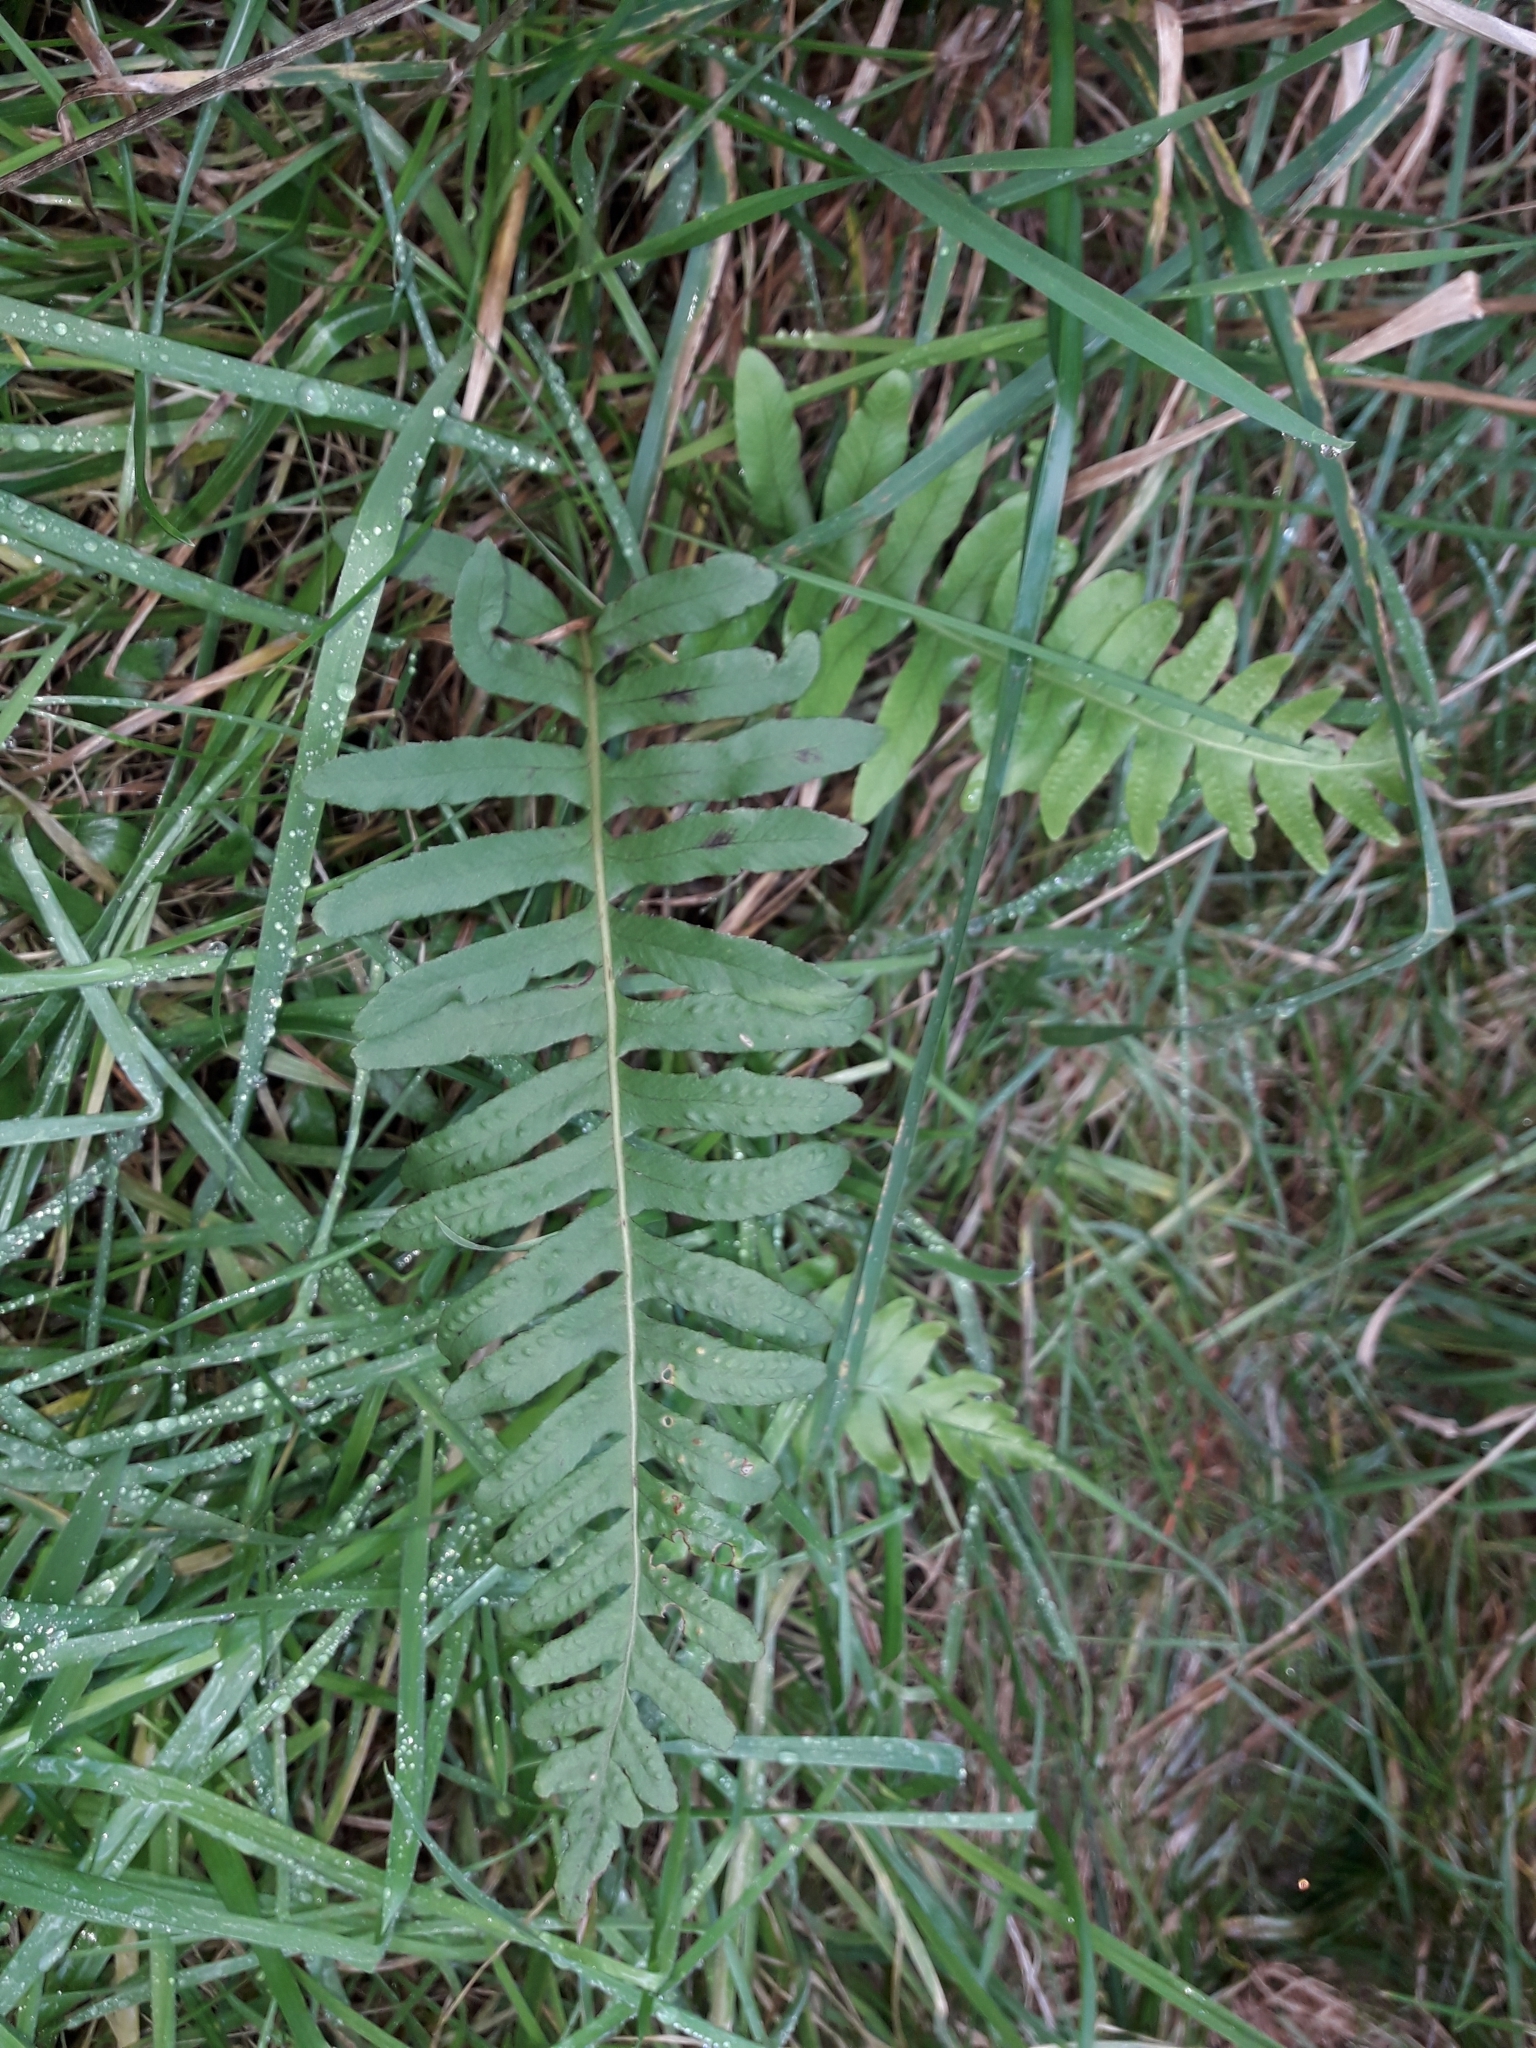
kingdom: Plantae
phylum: Tracheophyta
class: Polypodiopsida
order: Polypodiales
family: Polypodiaceae
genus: Polypodium
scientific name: Polypodium vulgare
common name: Common polypody
